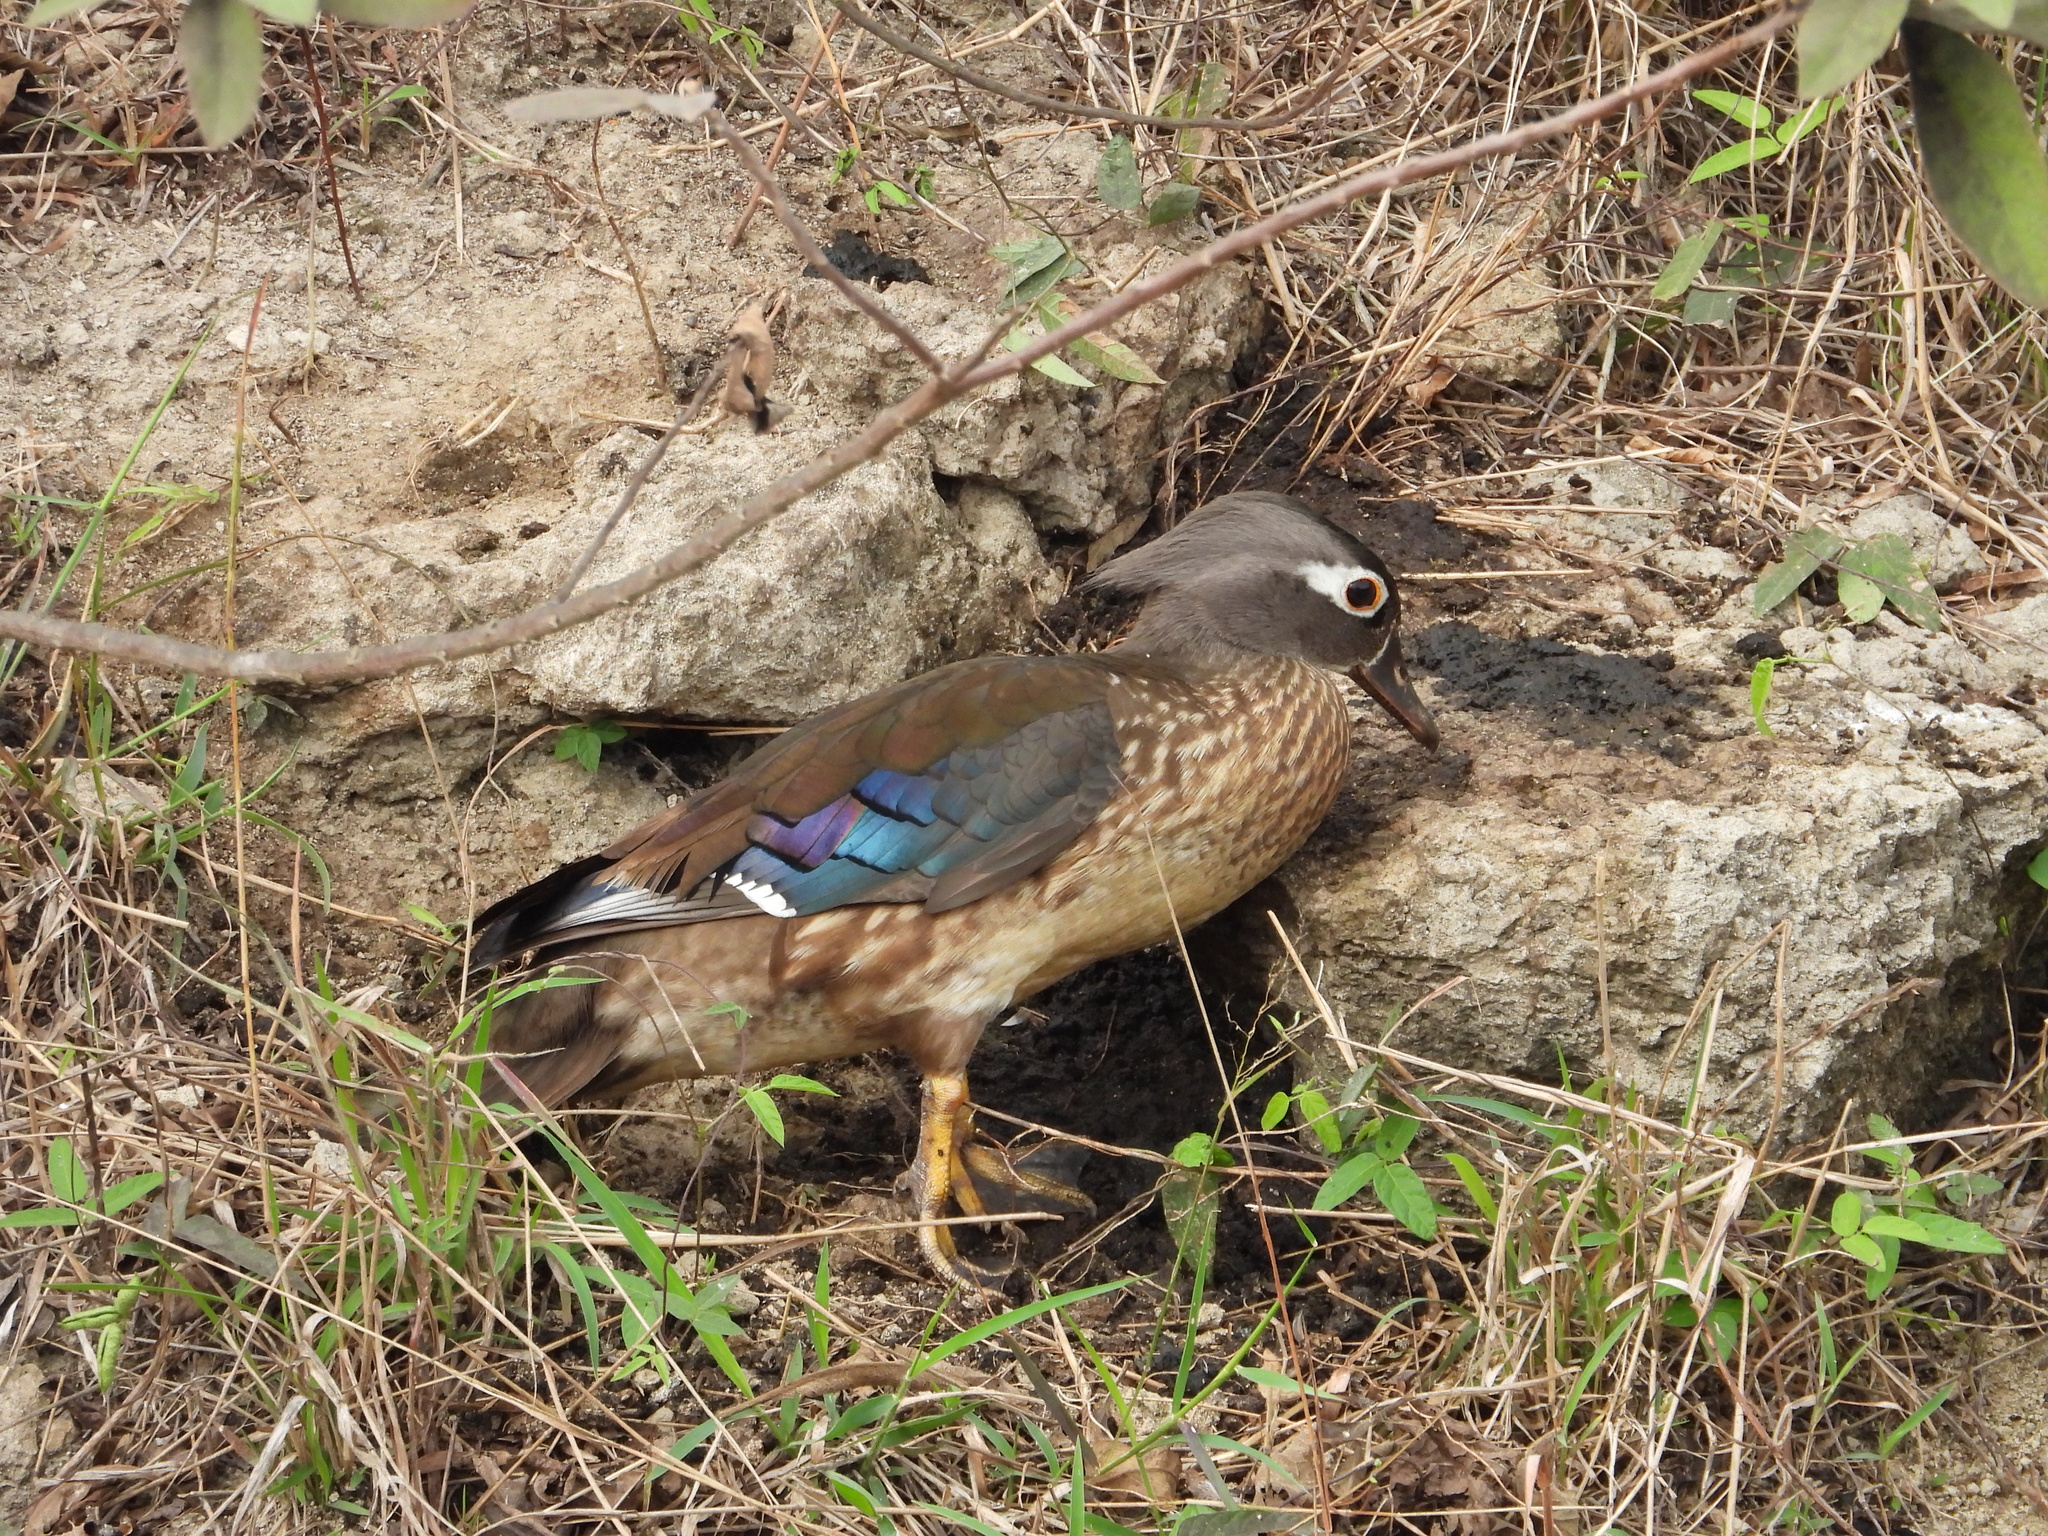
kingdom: Animalia
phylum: Chordata
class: Aves
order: Anseriformes
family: Anatidae
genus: Aix
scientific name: Aix sponsa
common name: Wood duck
